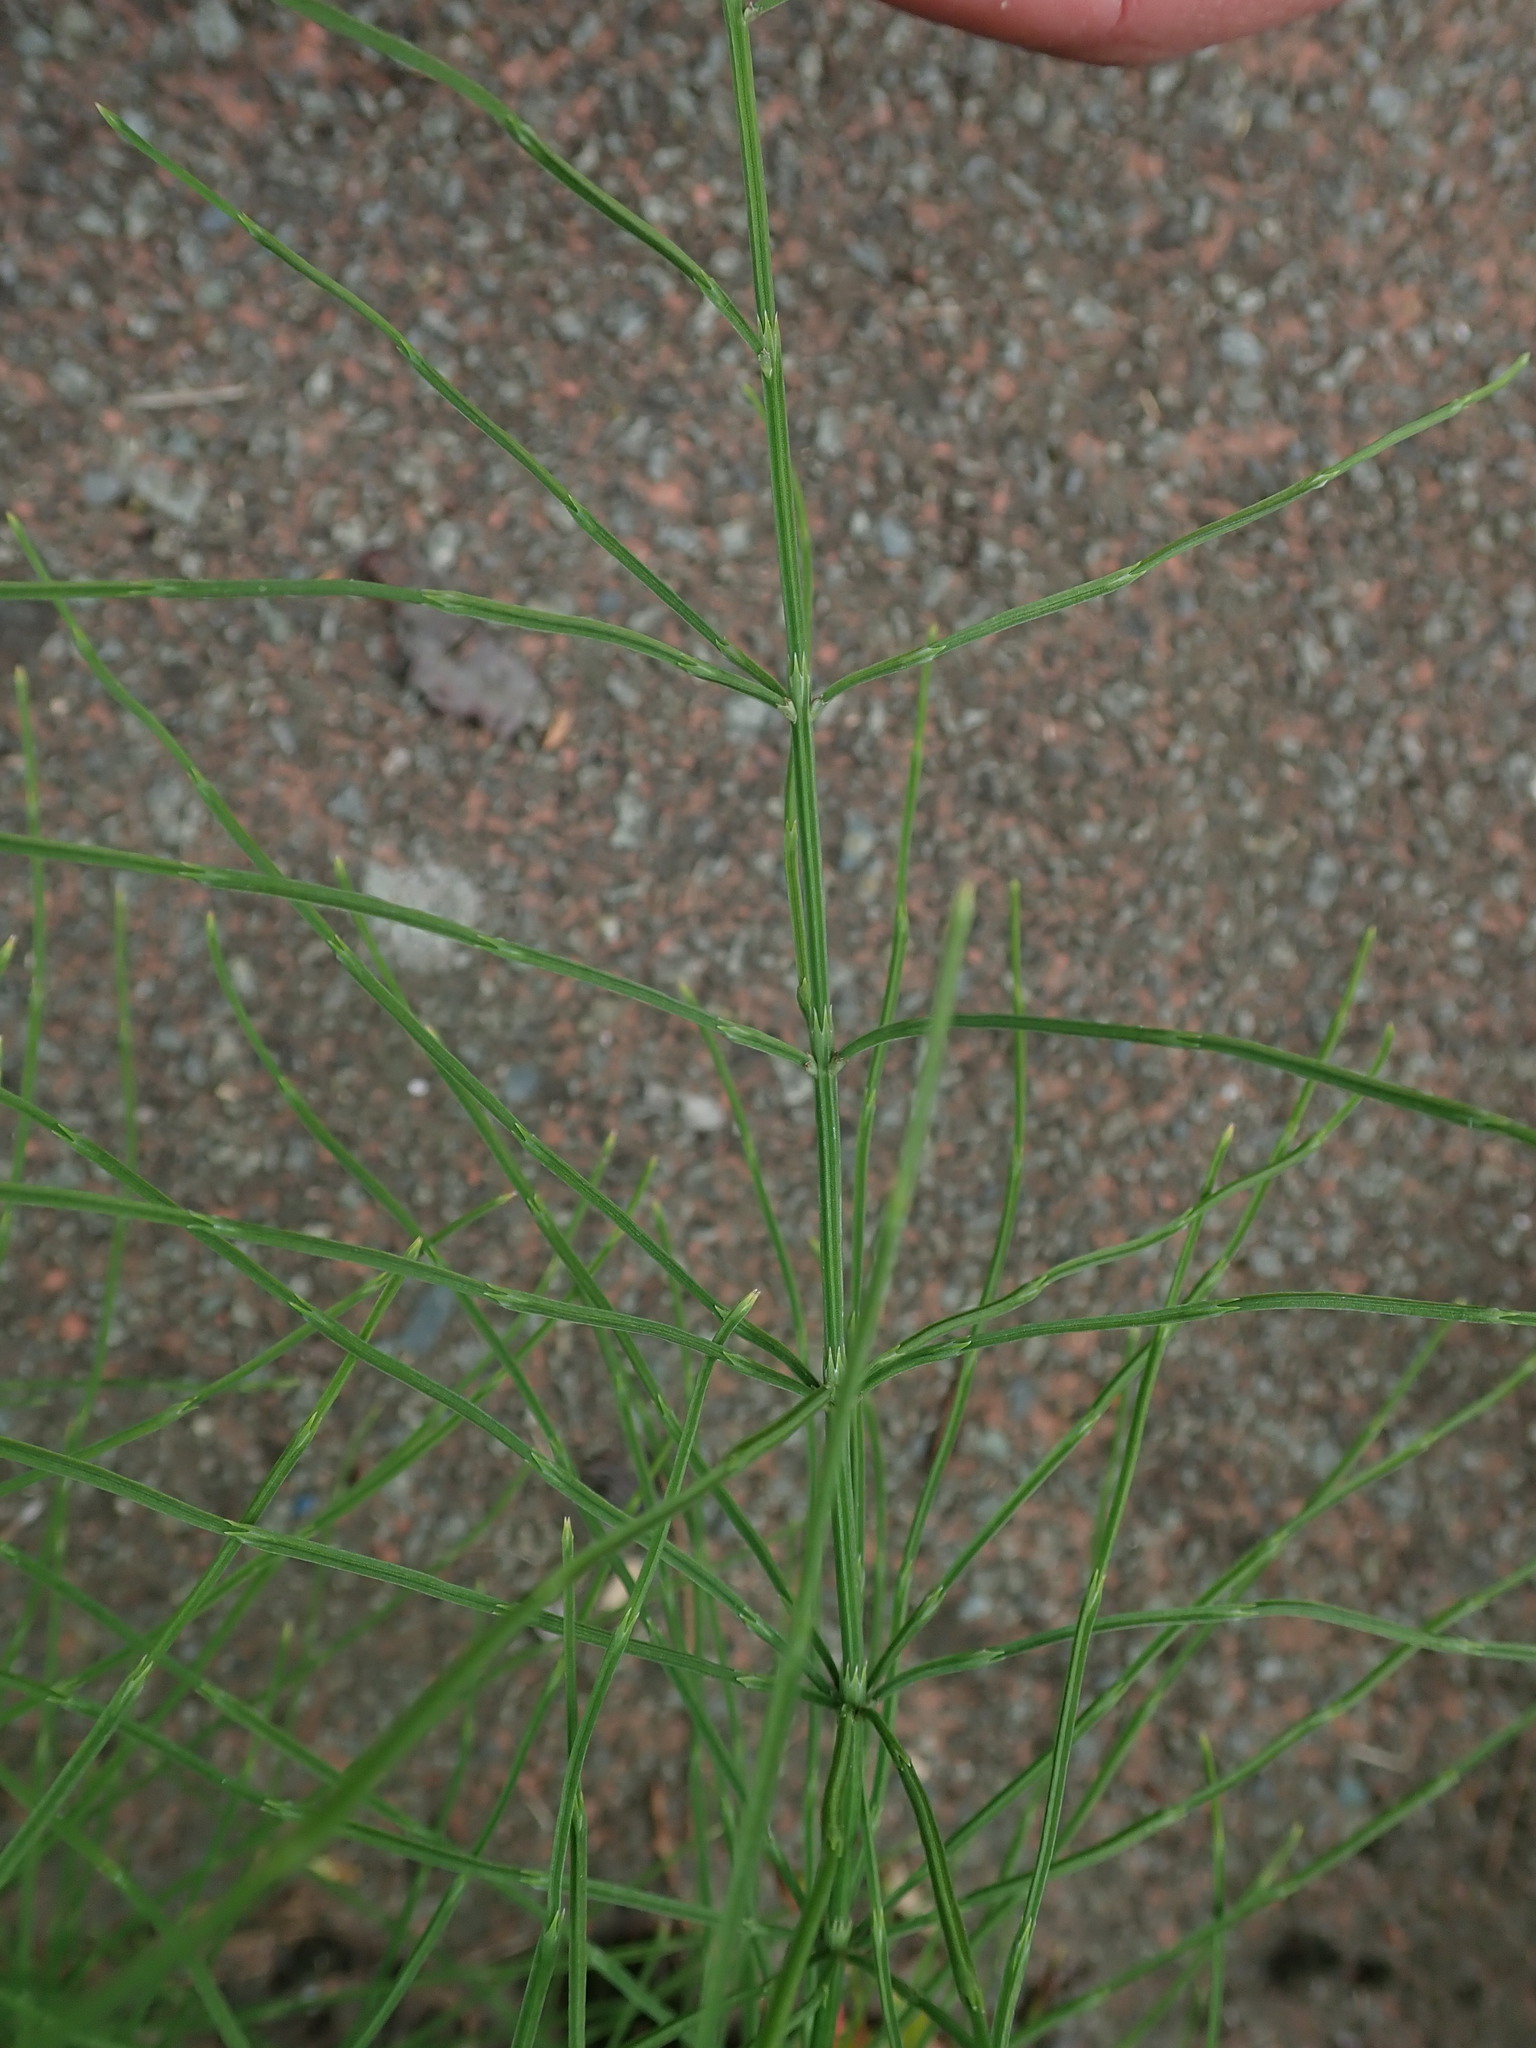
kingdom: Plantae
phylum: Tracheophyta
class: Polypodiopsida
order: Equisetales
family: Equisetaceae
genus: Equisetum
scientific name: Equisetum arvense
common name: Field horsetail
